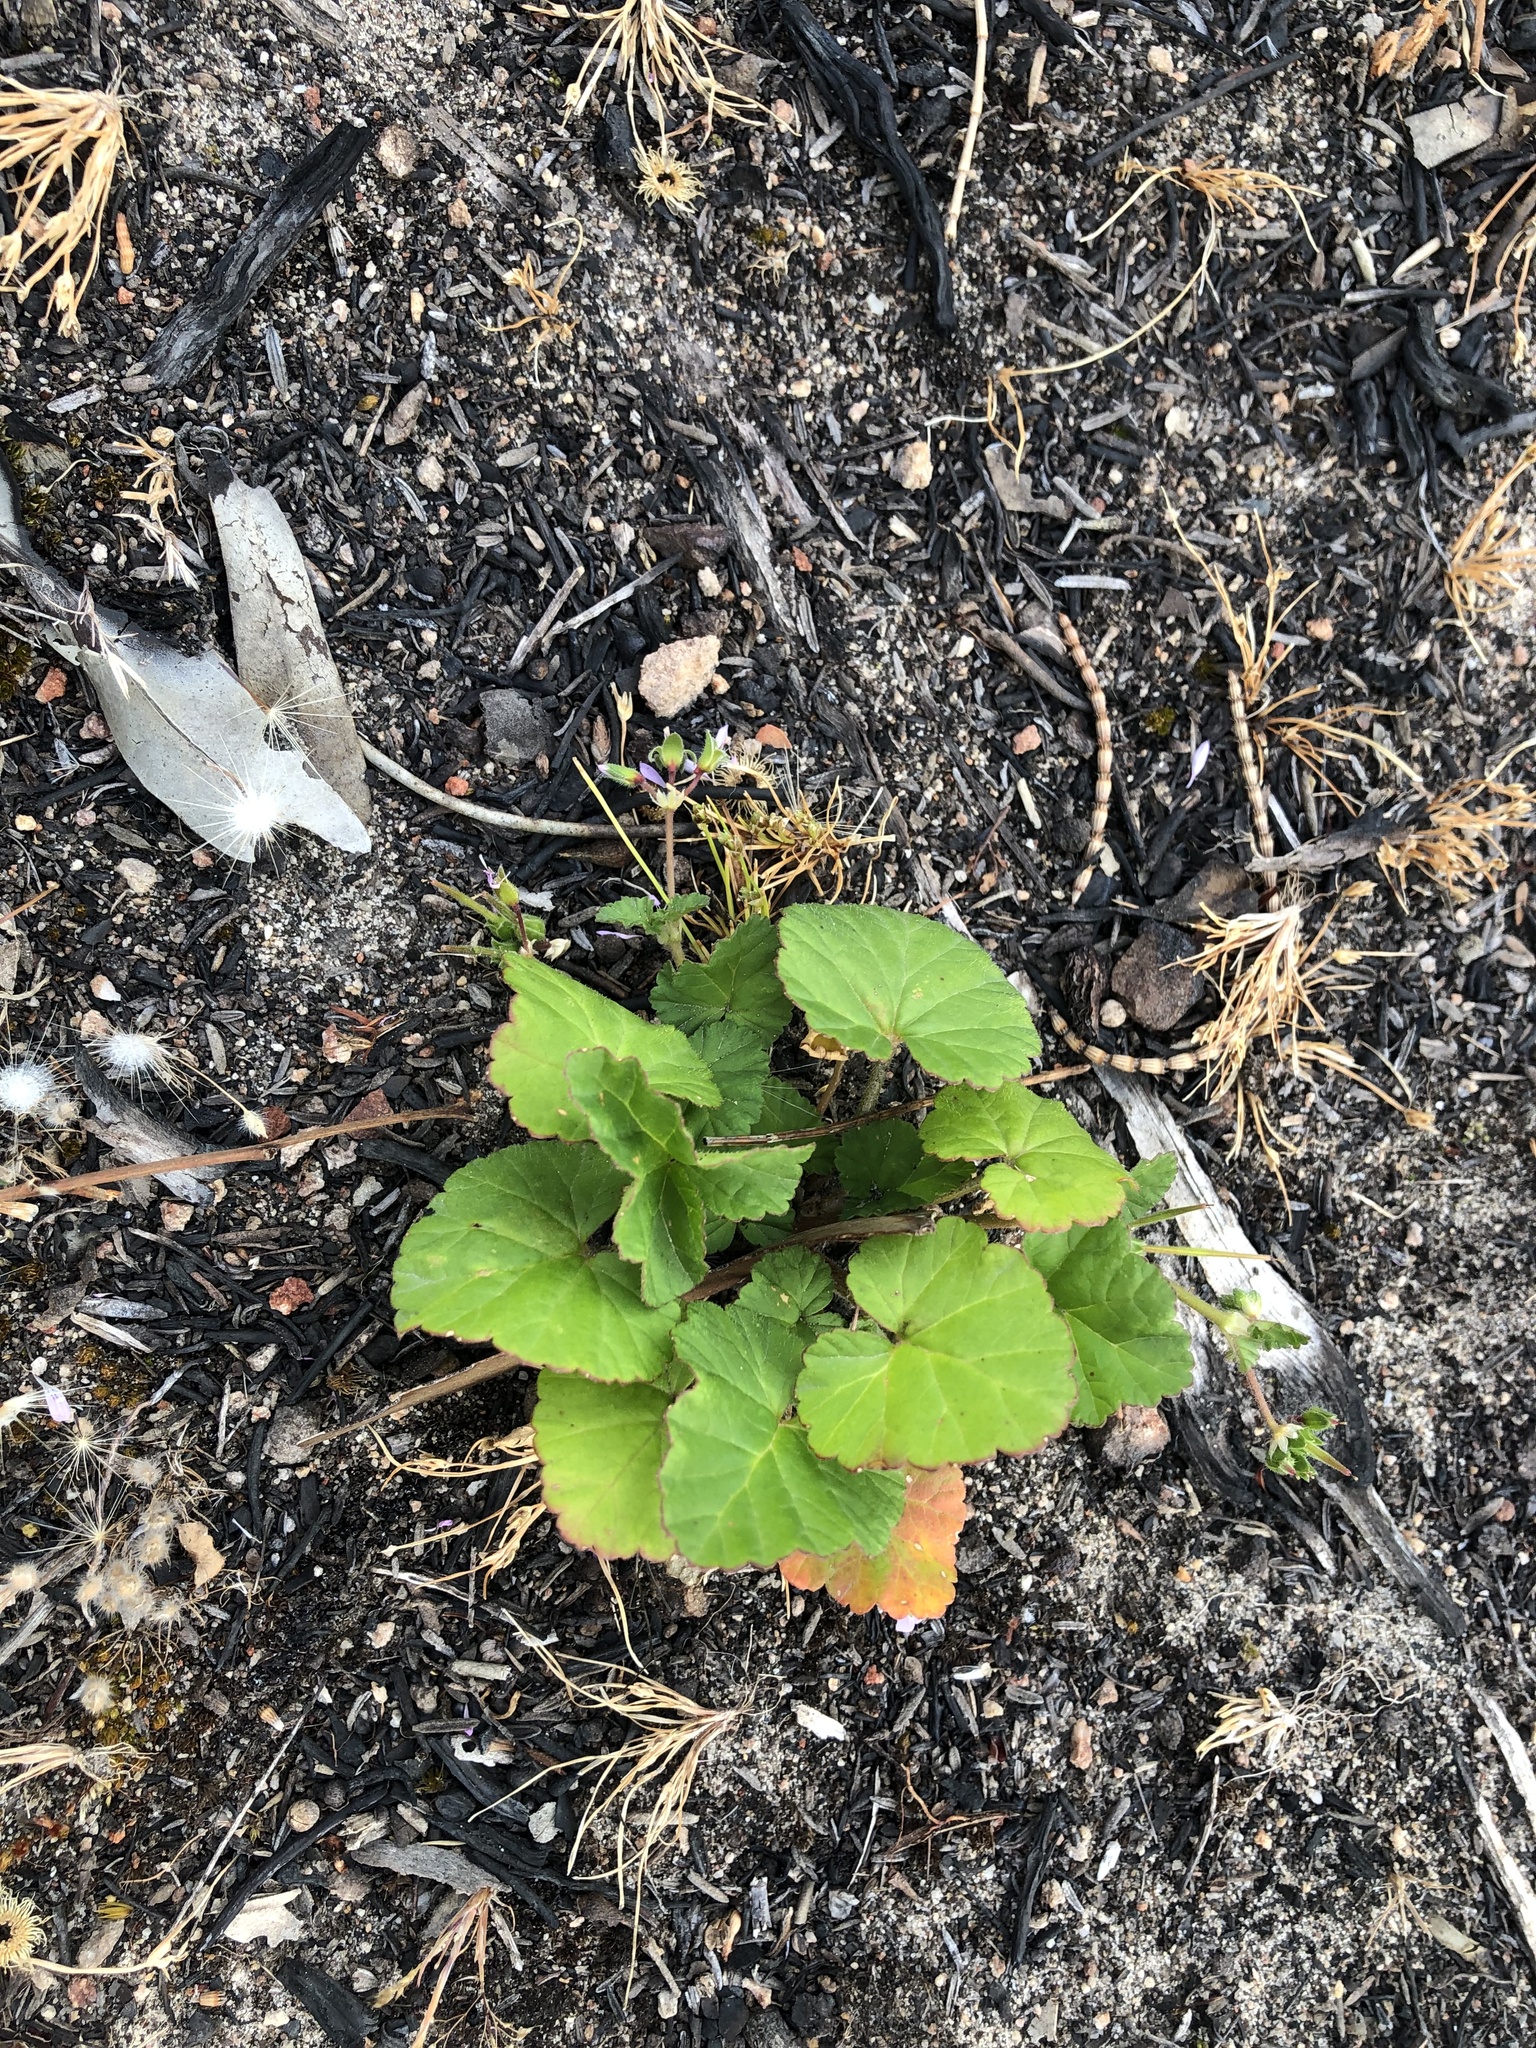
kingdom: Plantae
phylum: Tracheophyta
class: Magnoliopsida
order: Geraniales
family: Geraniaceae
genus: Pelargonium
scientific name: Pelargonium littorale
